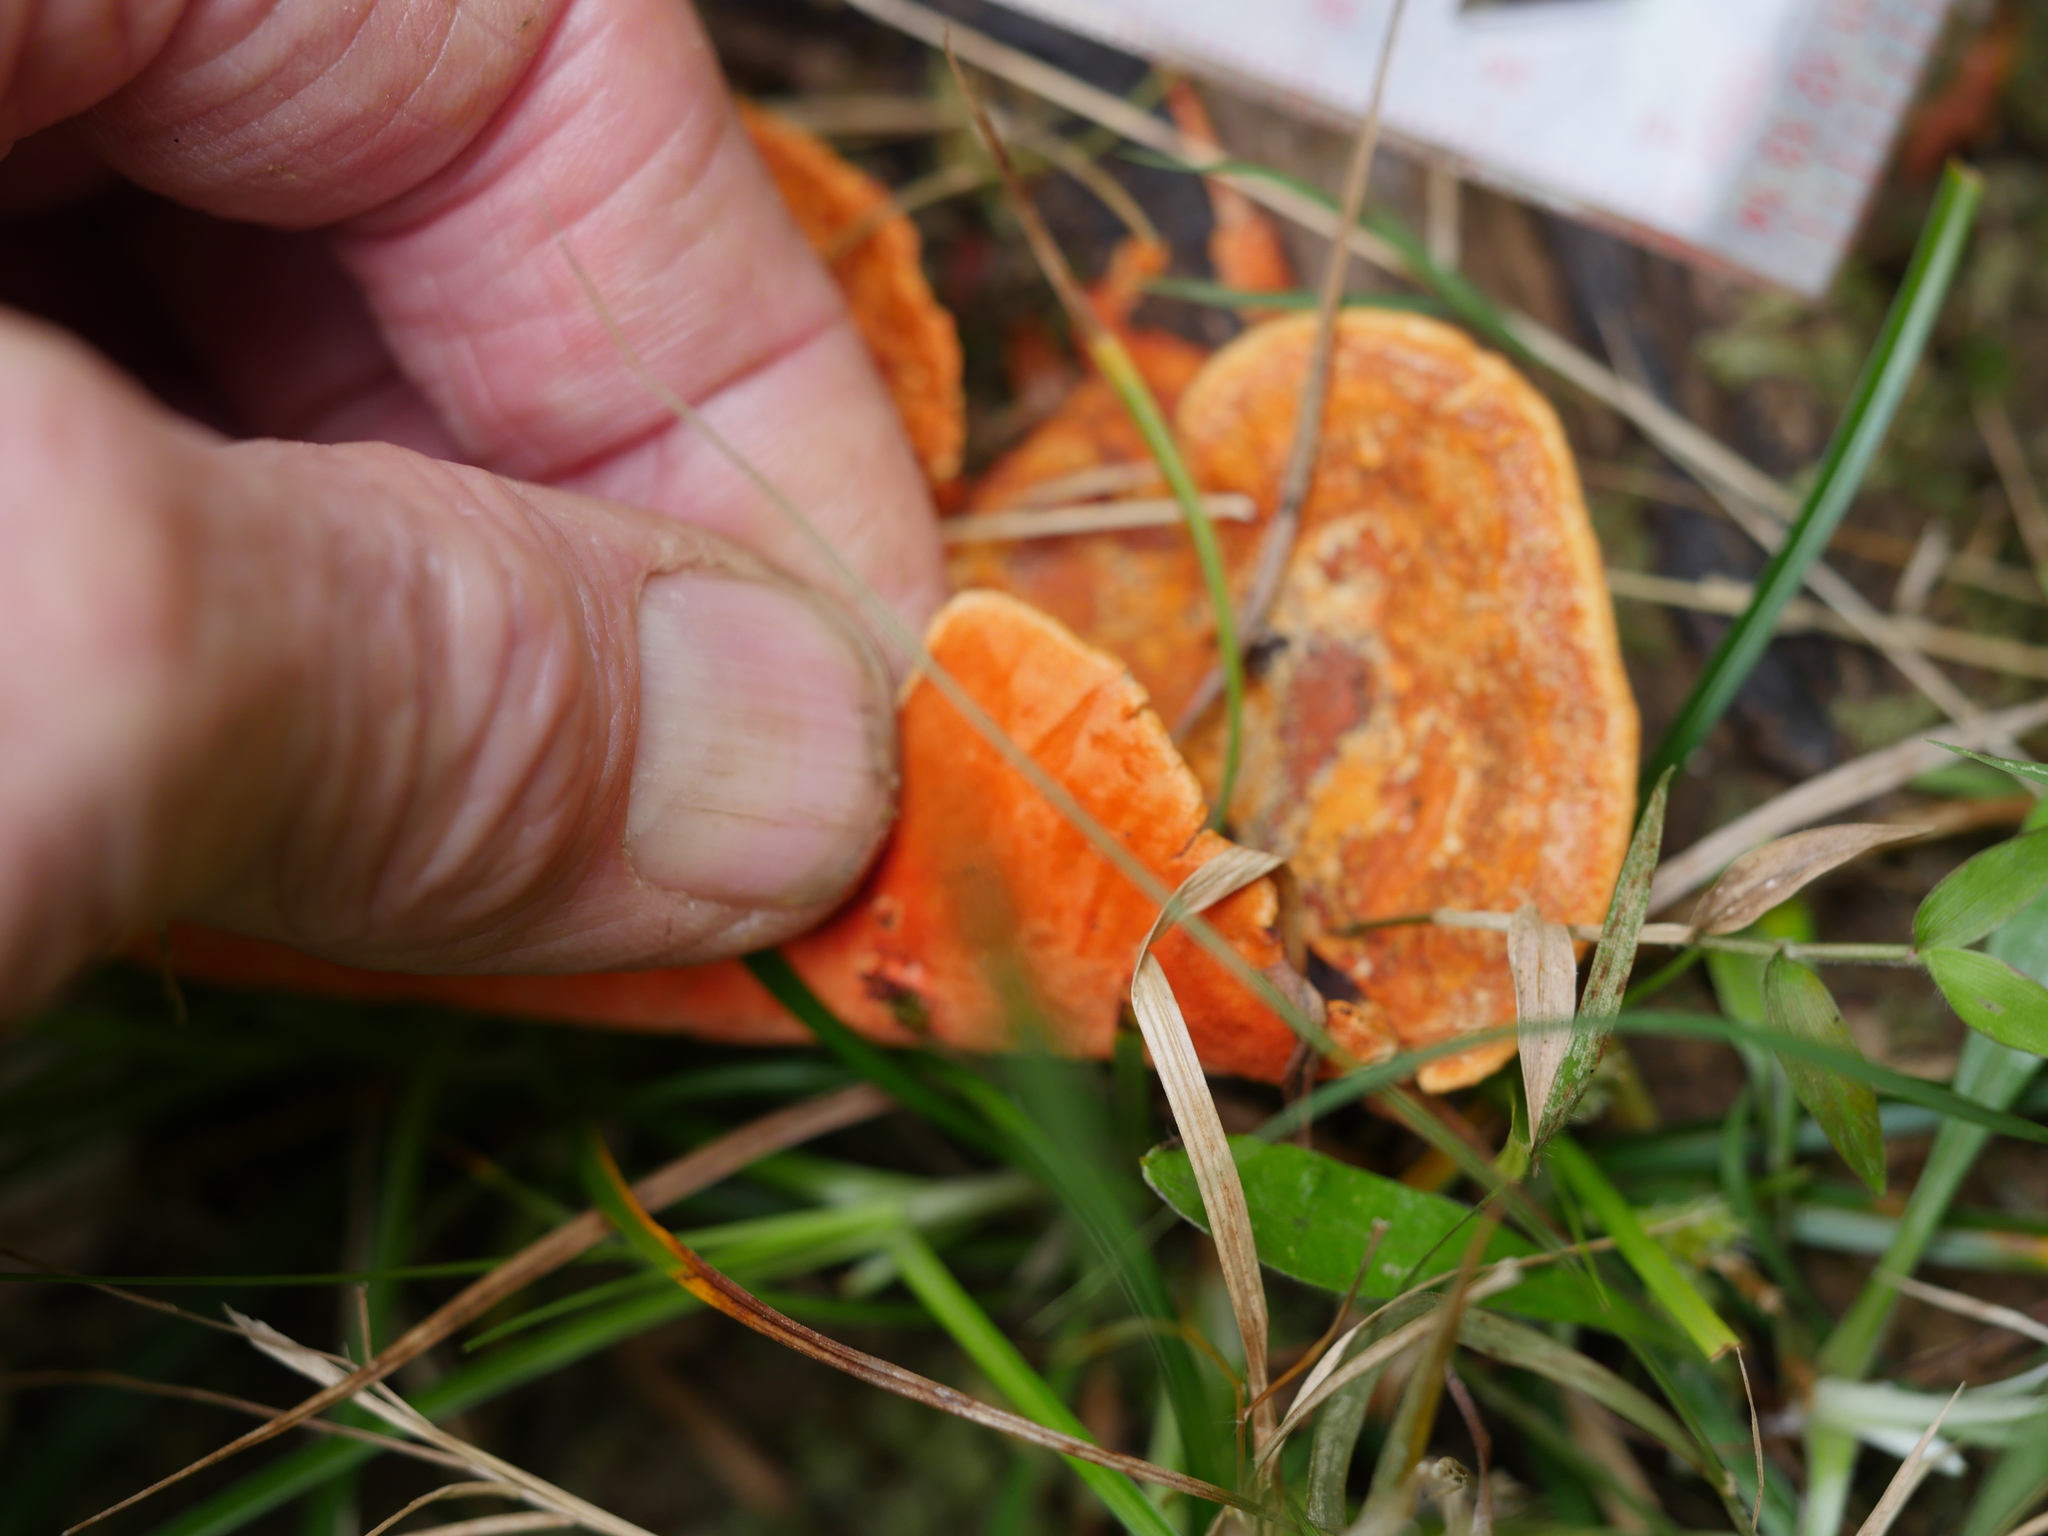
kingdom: Fungi
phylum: Basidiomycota
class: Agaricomycetes
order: Polyporales
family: Polyporaceae
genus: Trametes
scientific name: Trametes coccinea
